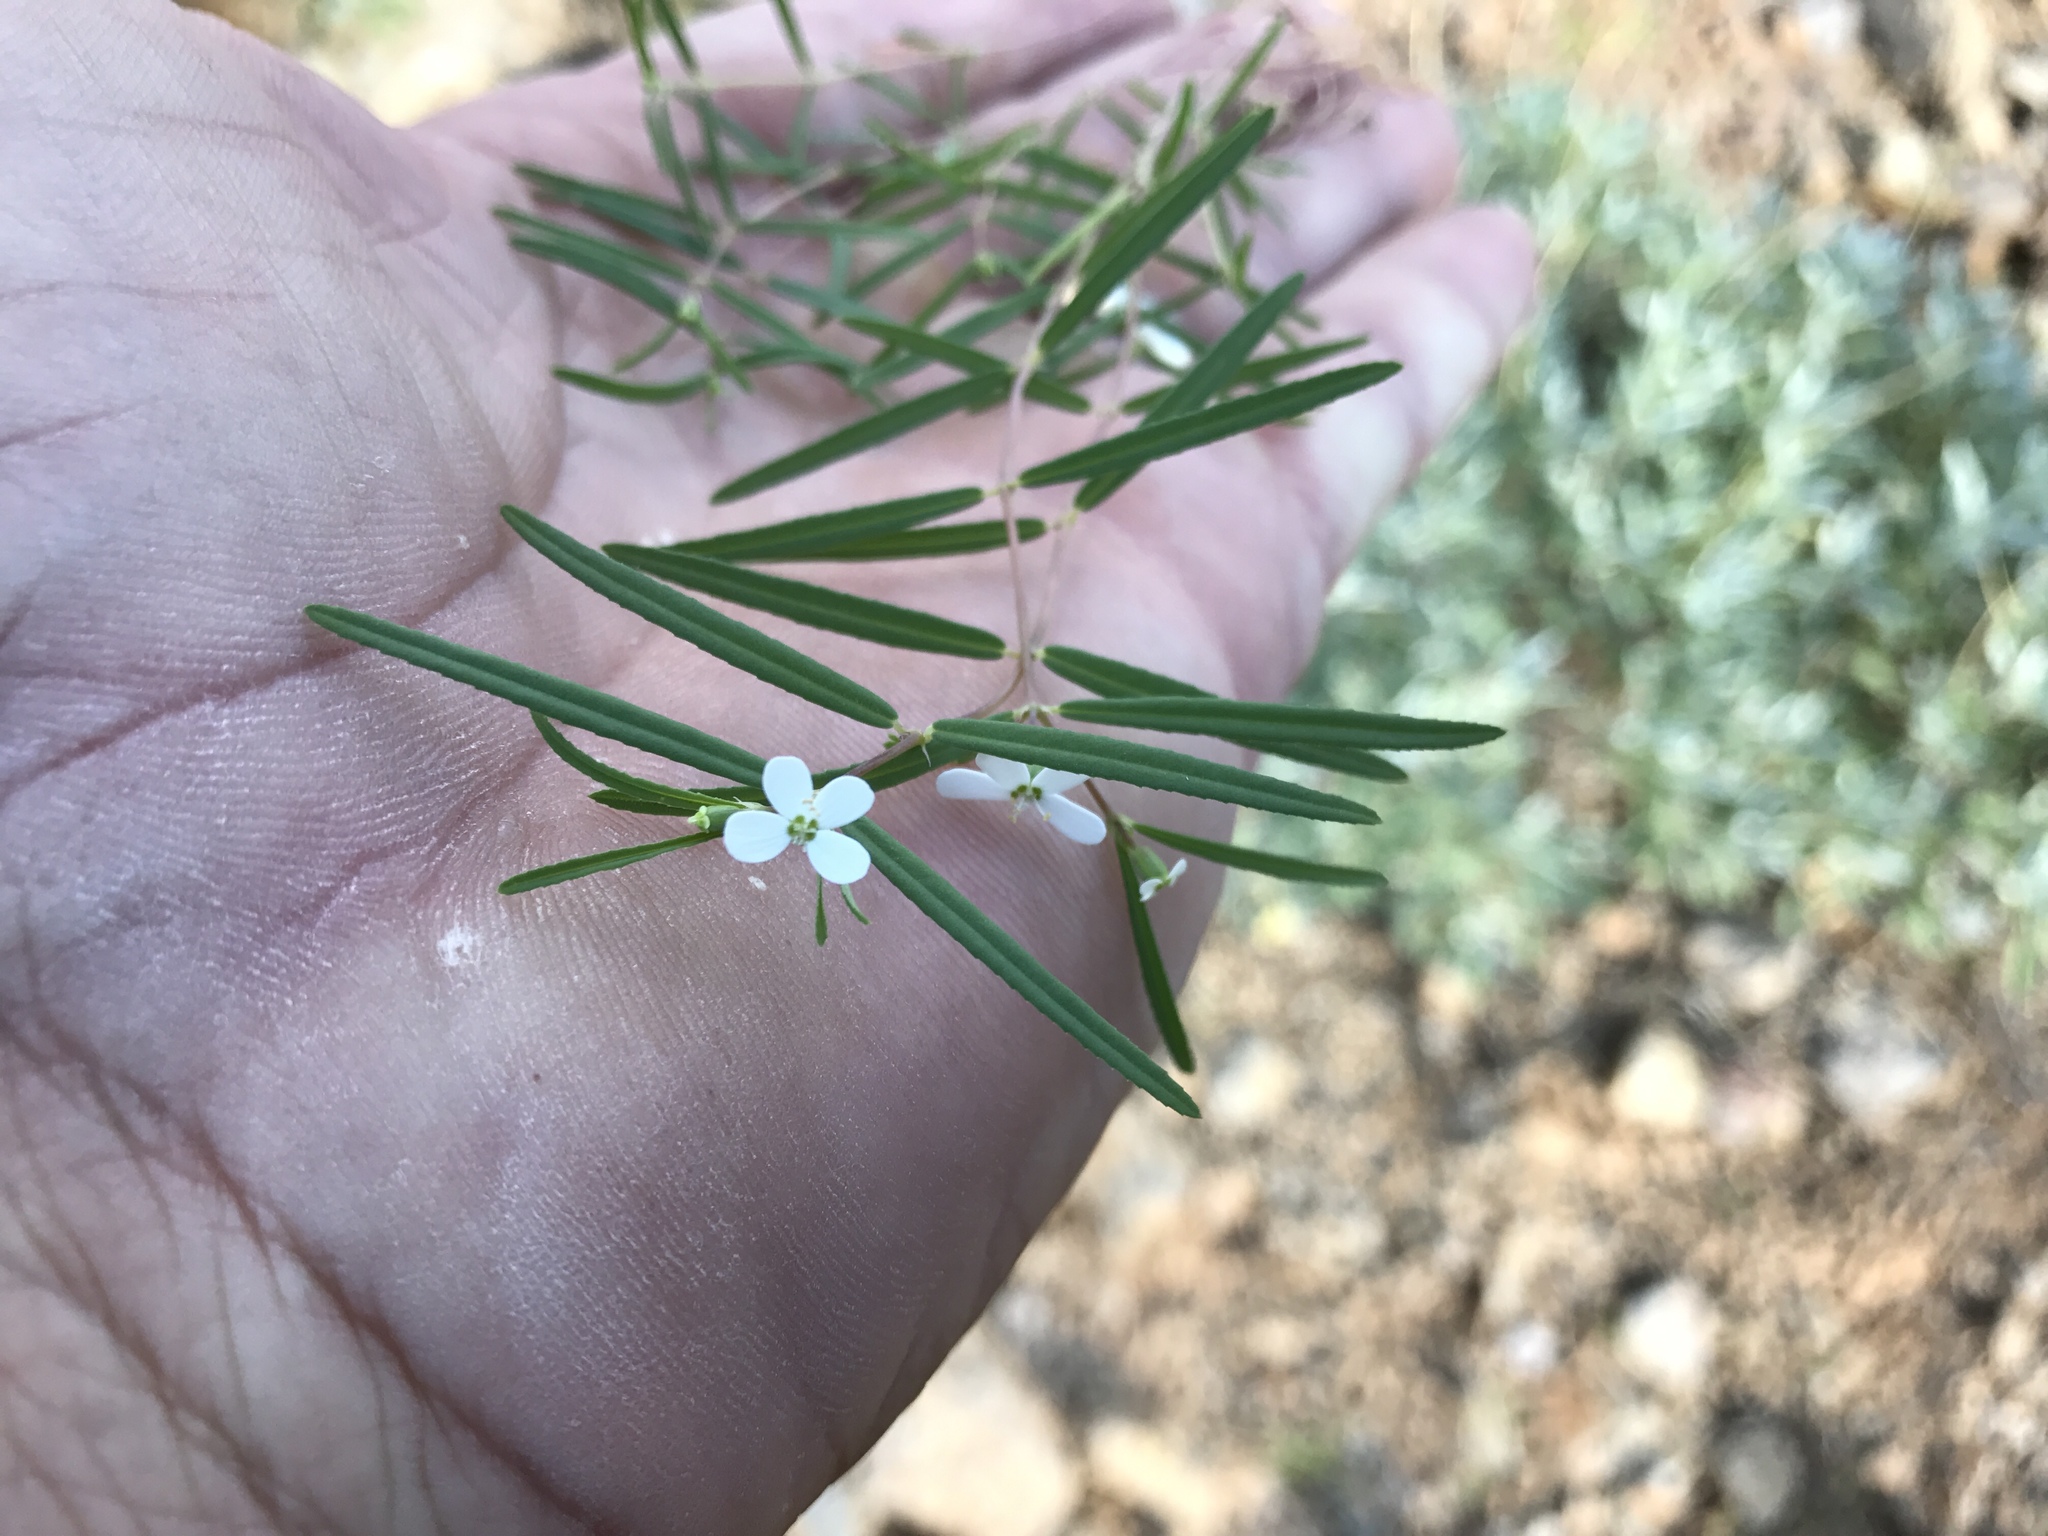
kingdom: Plantae
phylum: Tracheophyta
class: Magnoliopsida
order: Malpighiales
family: Euphorbiaceae
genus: Euphorbia
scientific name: Euphorbia florida
